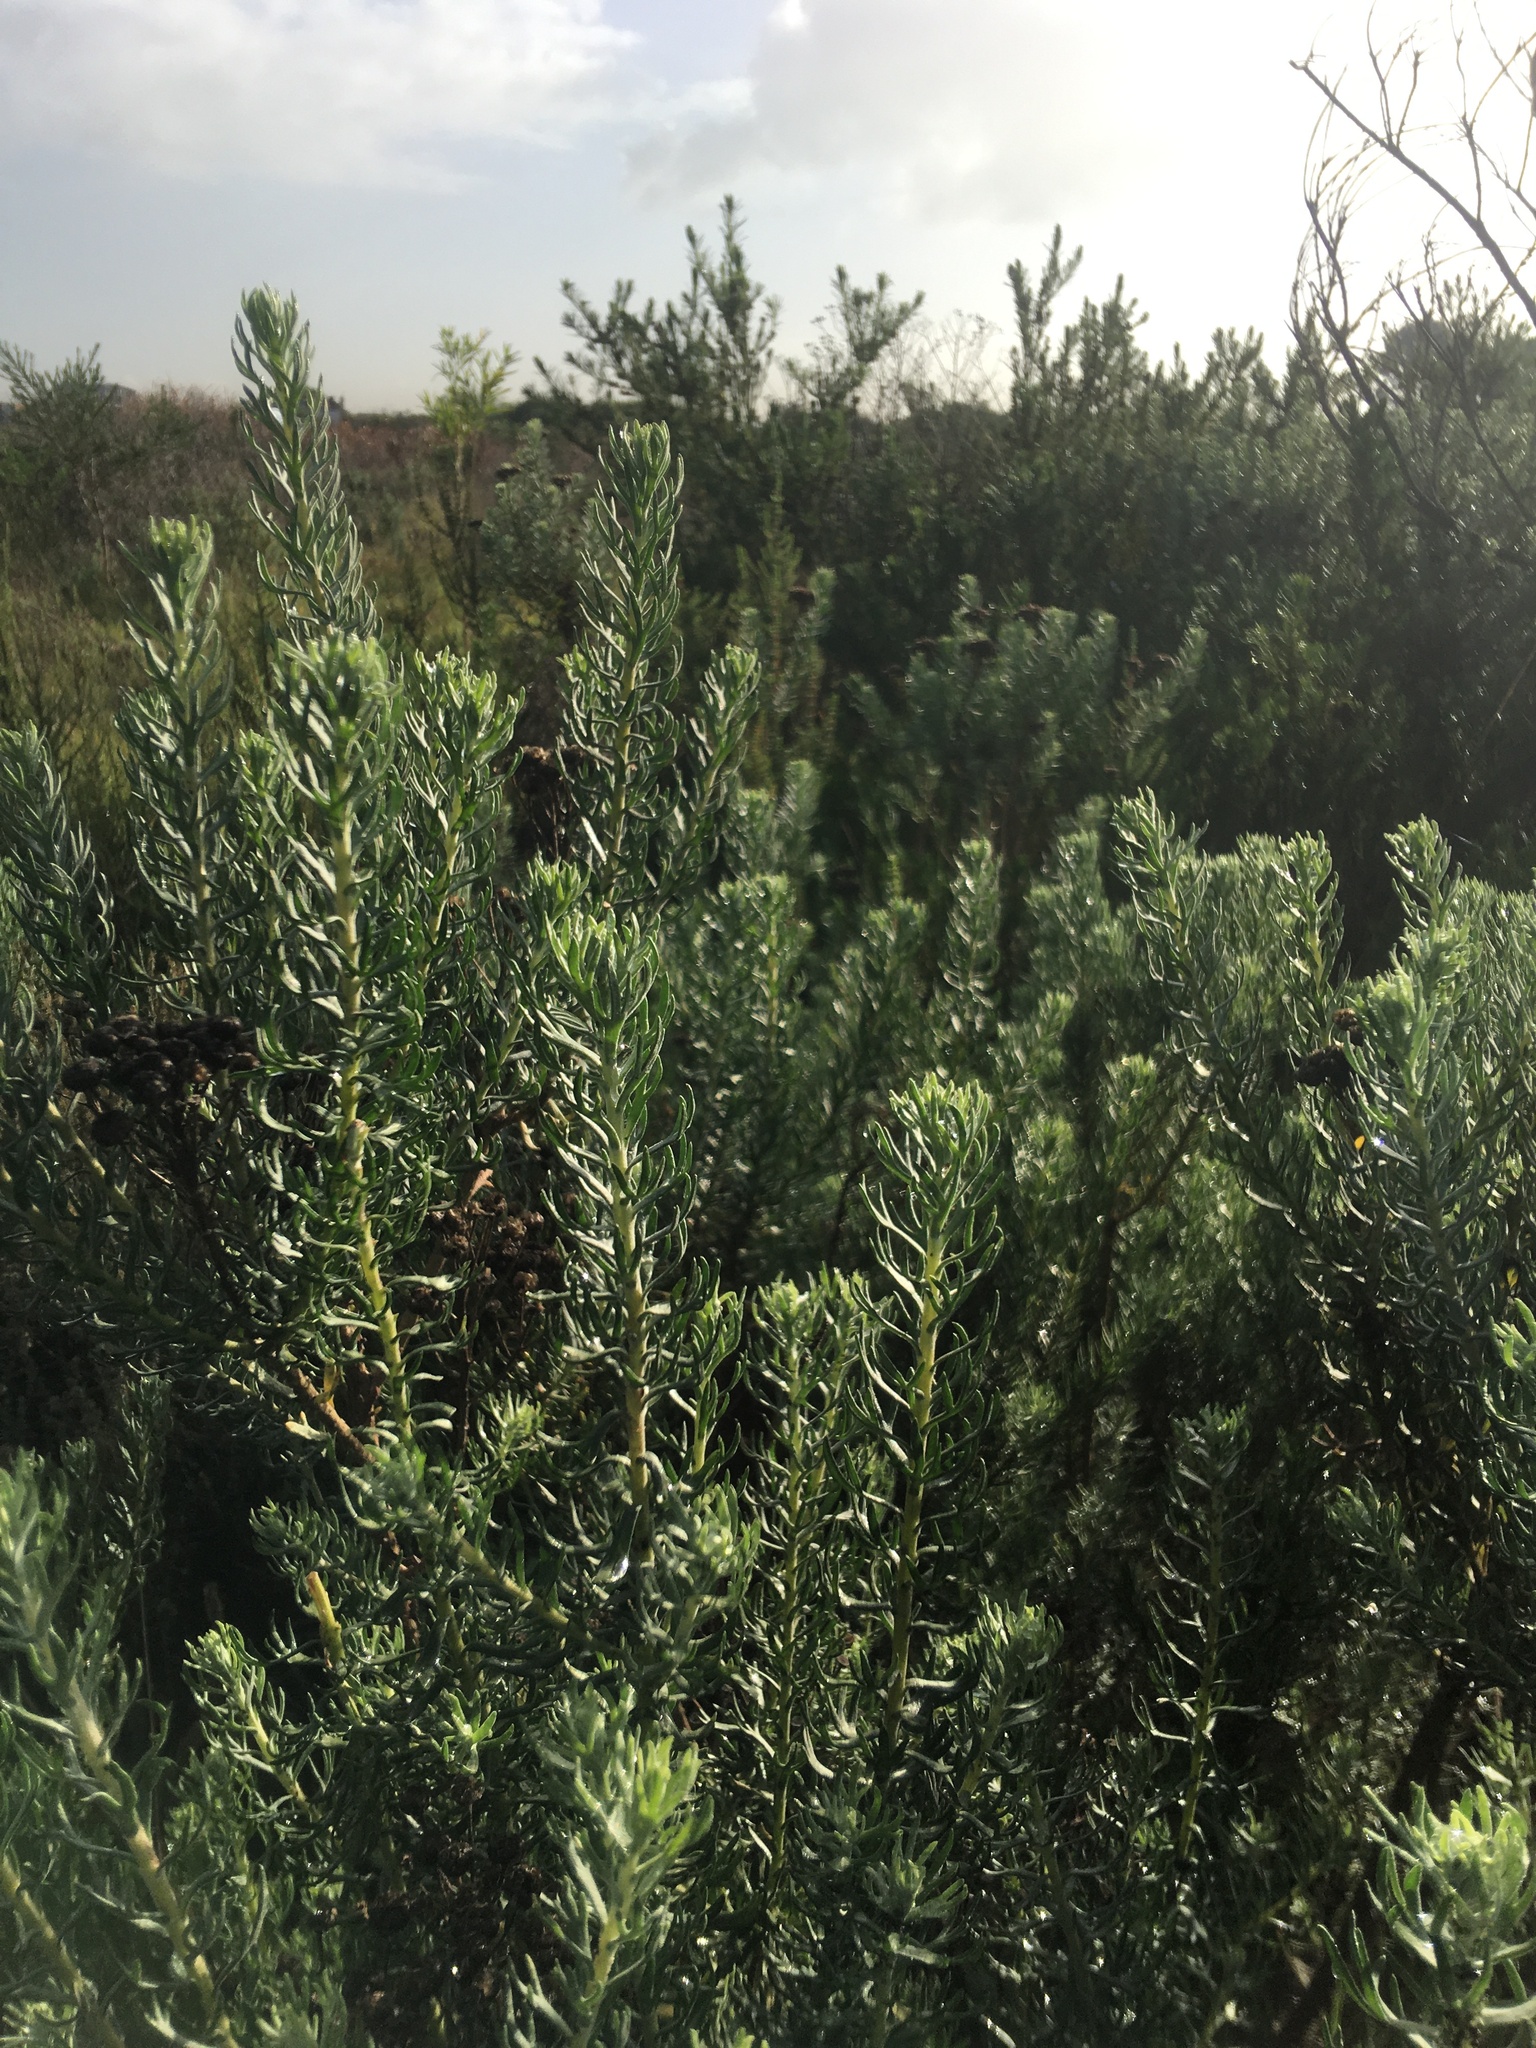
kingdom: Plantae
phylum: Tracheophyta
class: Magnoliopsida
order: Asterales
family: Asteraceae
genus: Athanasia
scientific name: Athanasia trifurcata
